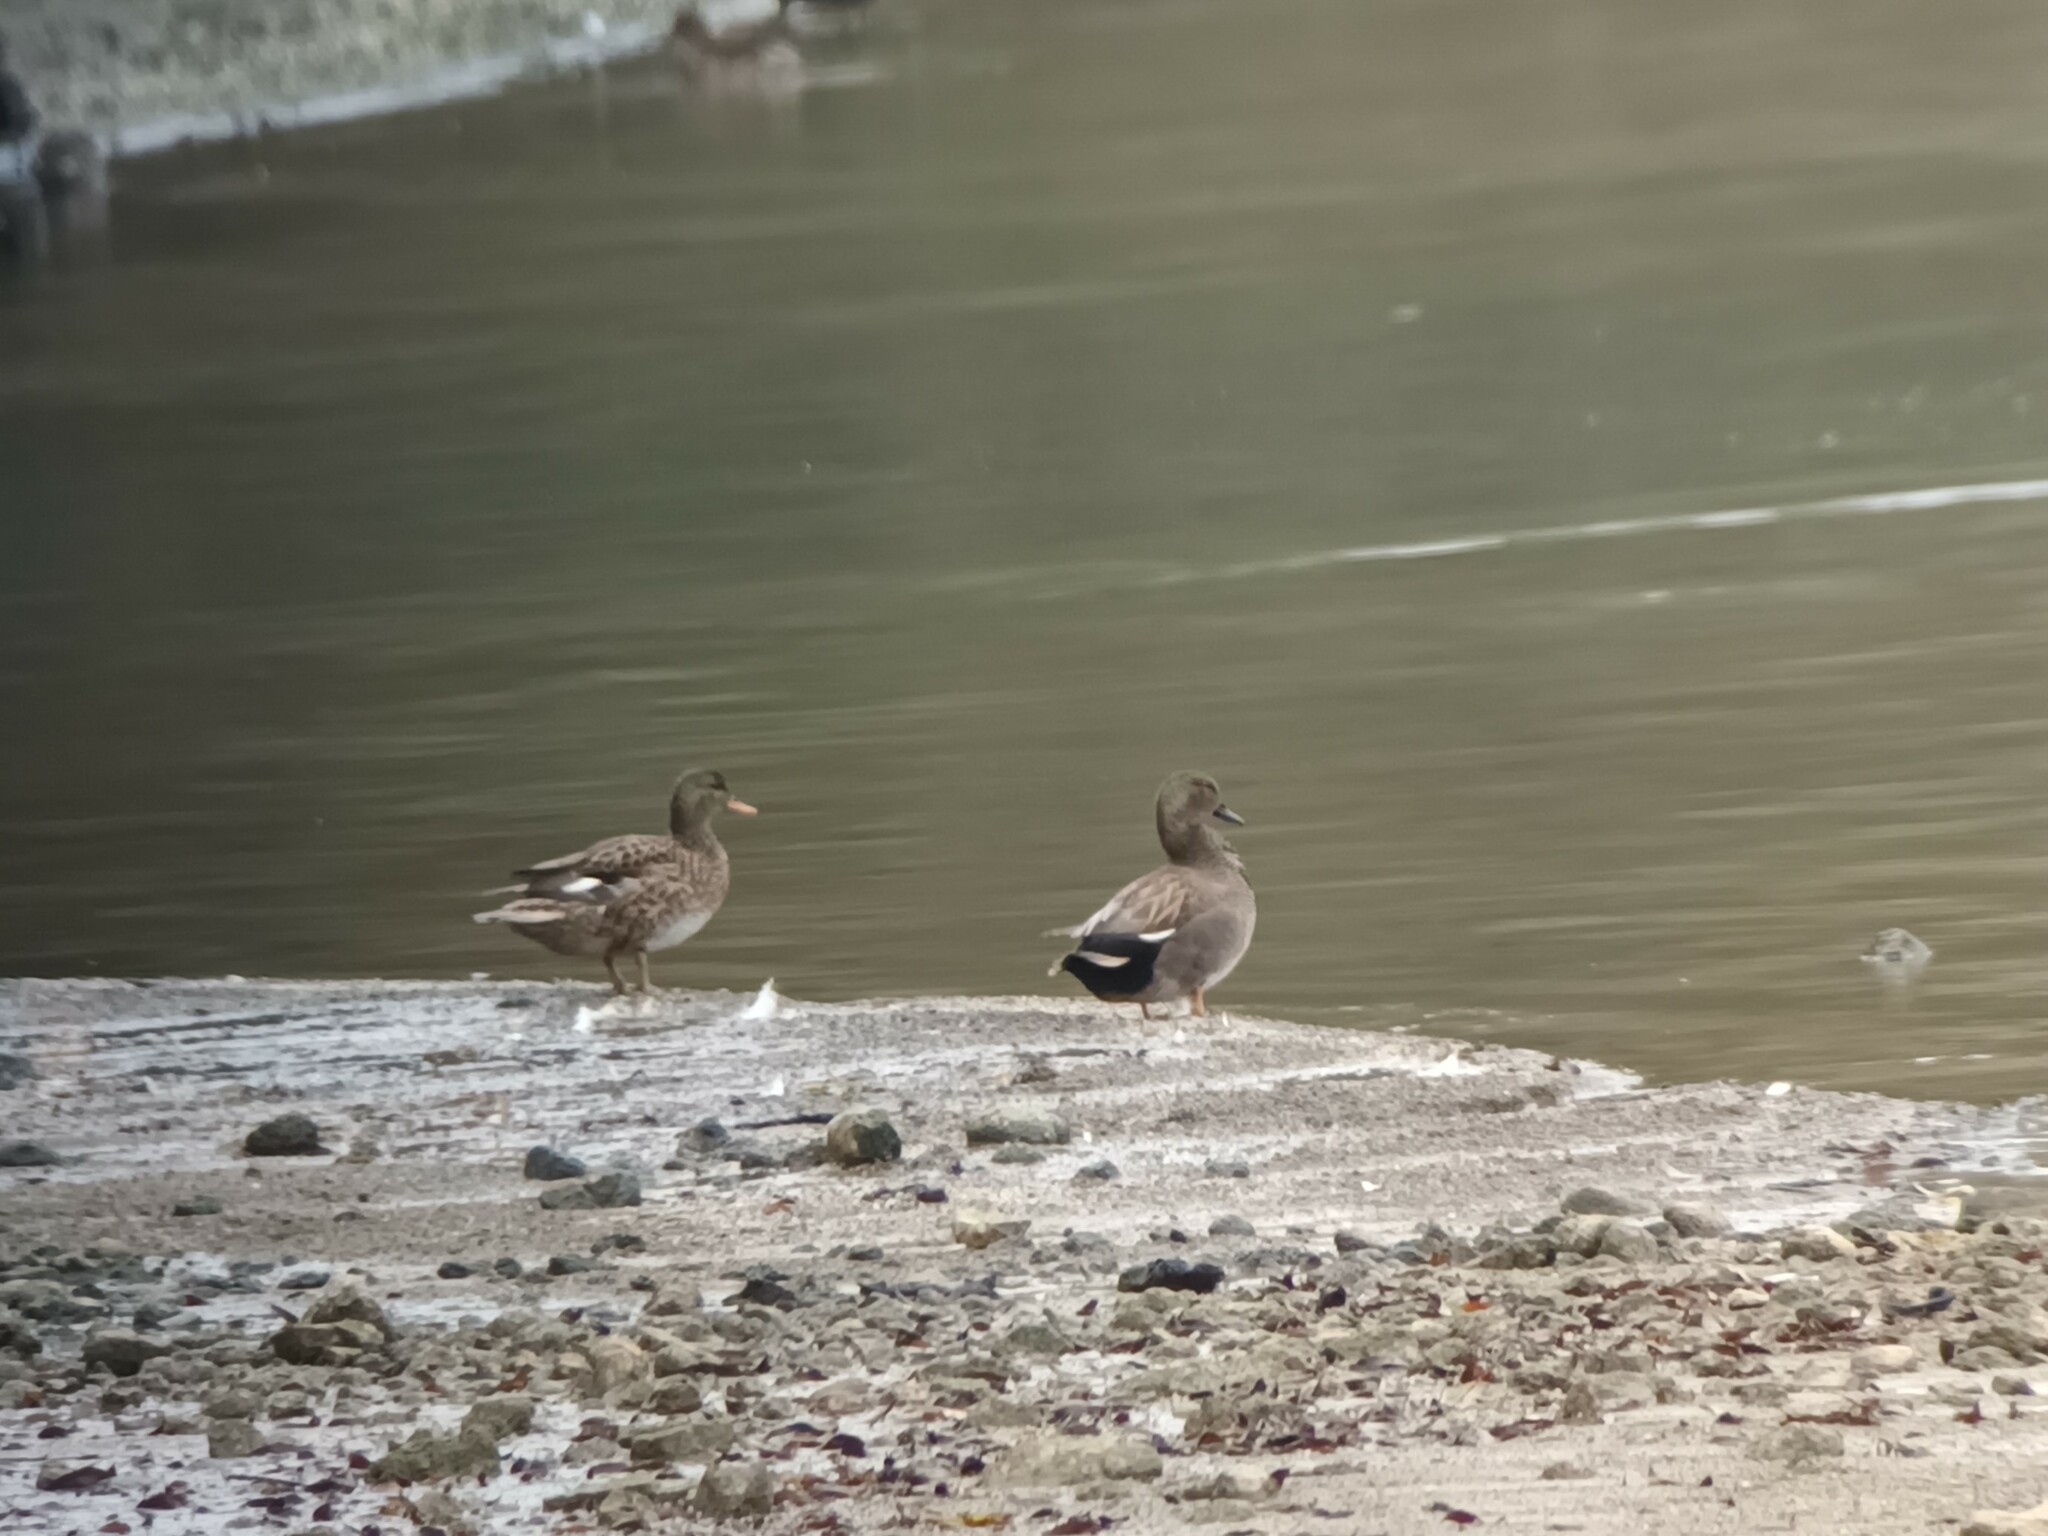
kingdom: Animalia
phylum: Chordata
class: Aves
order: Anseriformes
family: Anatidae
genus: Mareca
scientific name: Mareca strepera
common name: Gadwall
